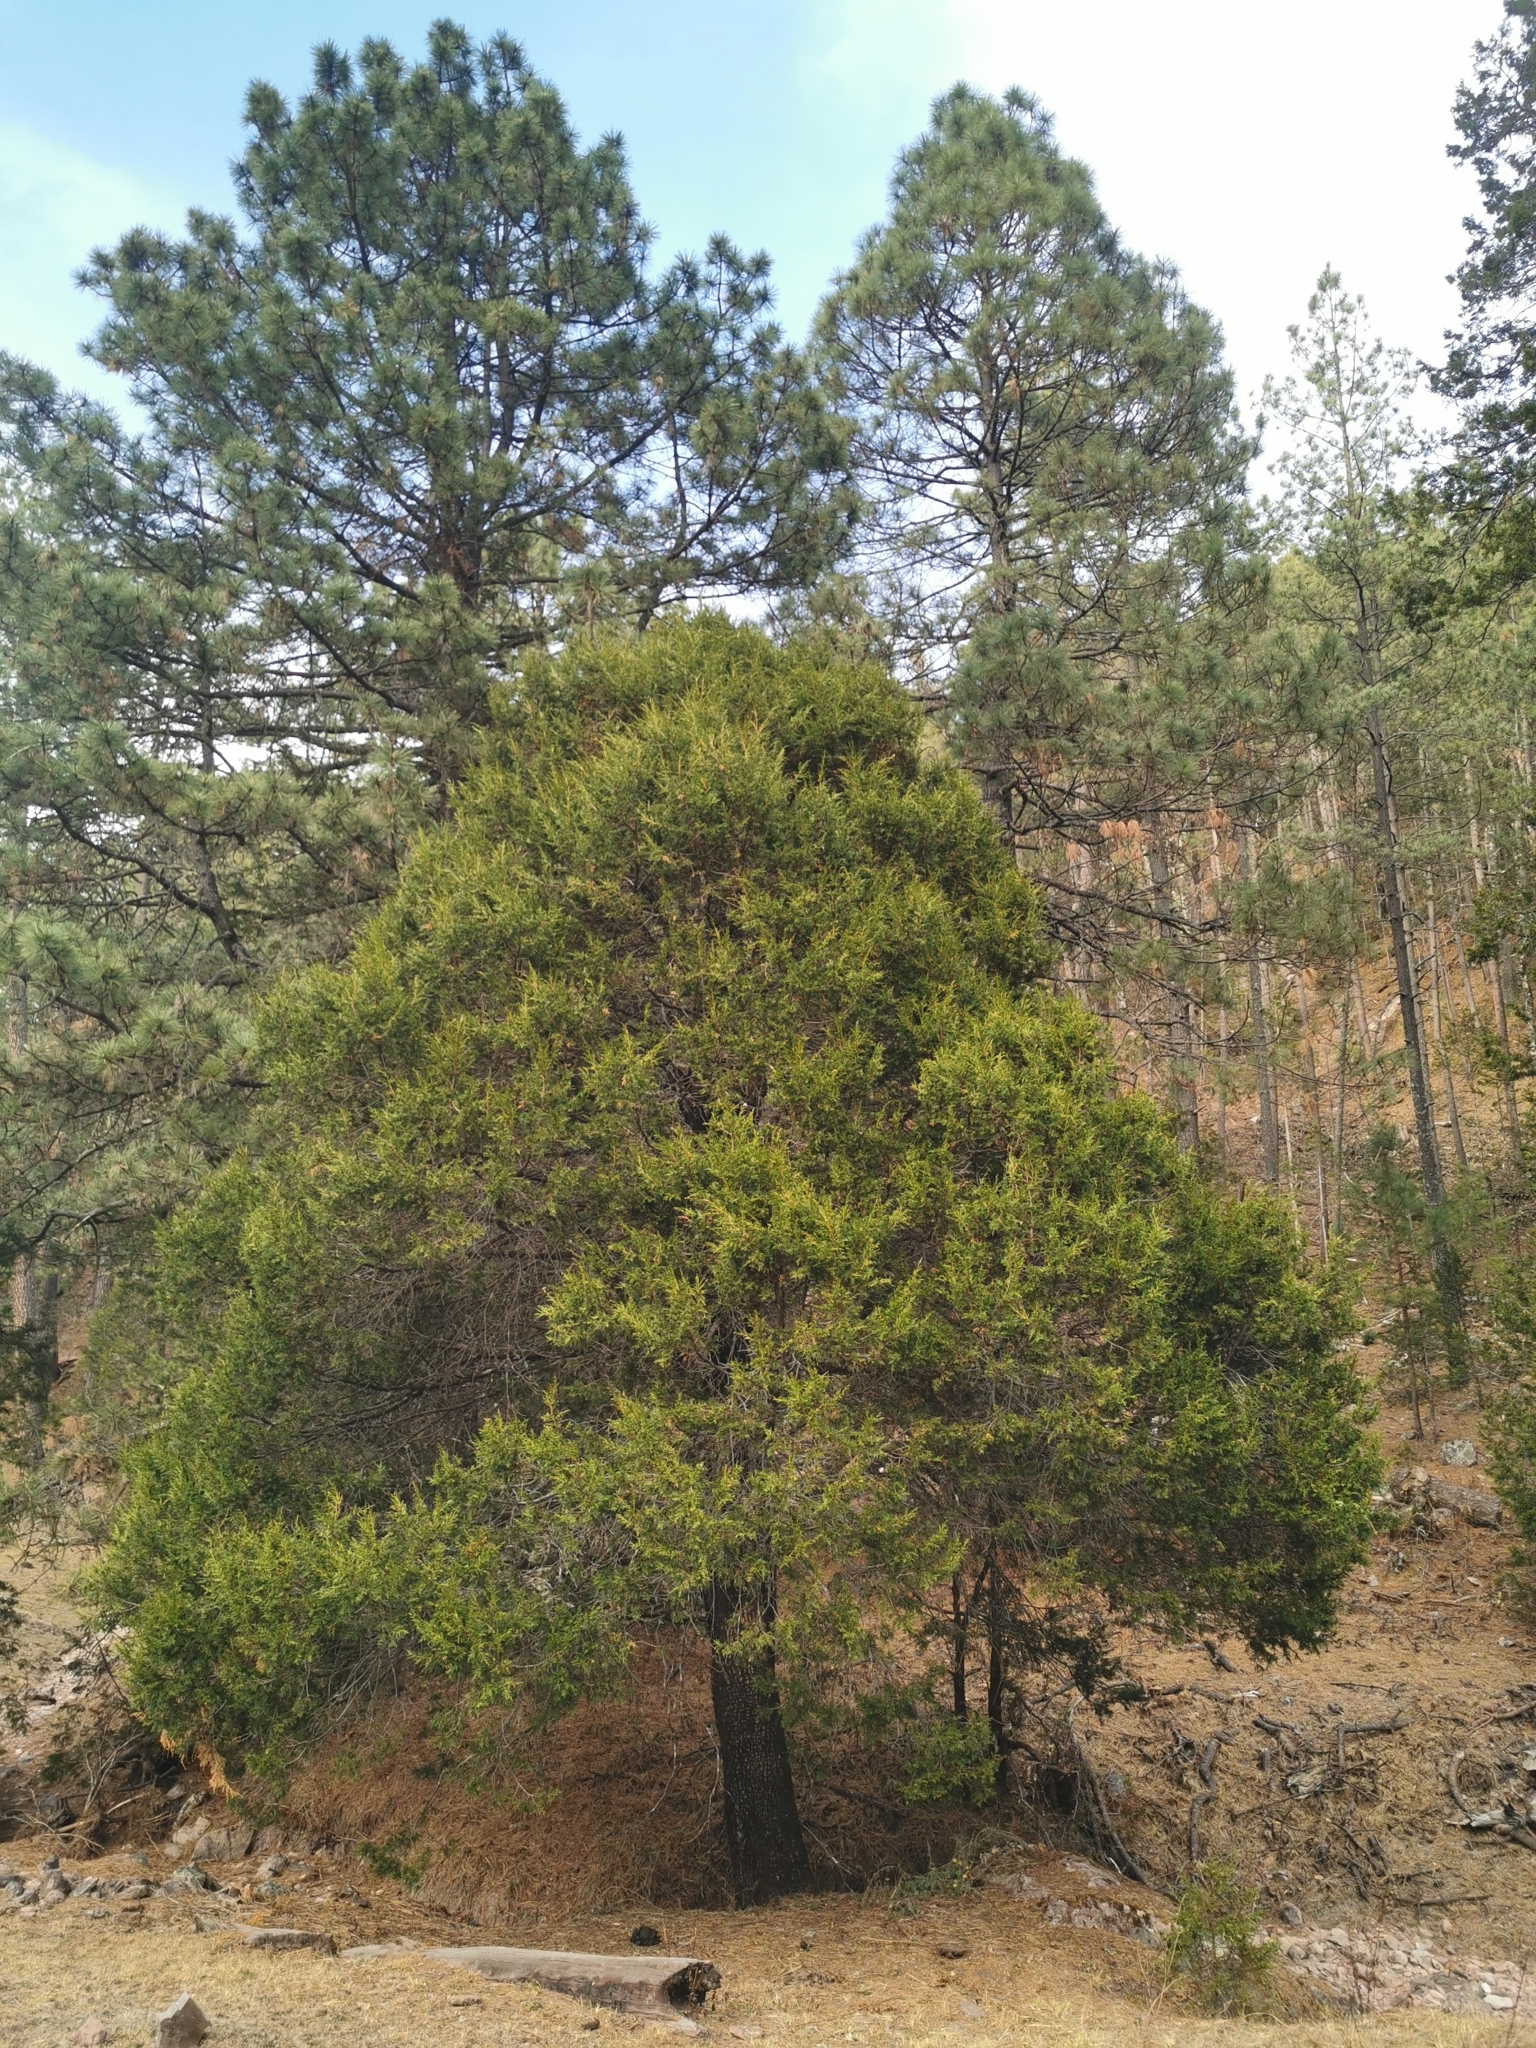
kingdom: Plantae
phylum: Tracheophyta
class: Pinopsida
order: Pinales
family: Cupressaceae
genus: Juniperus
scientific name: Juniperus deppeana
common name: Alligator juniper
